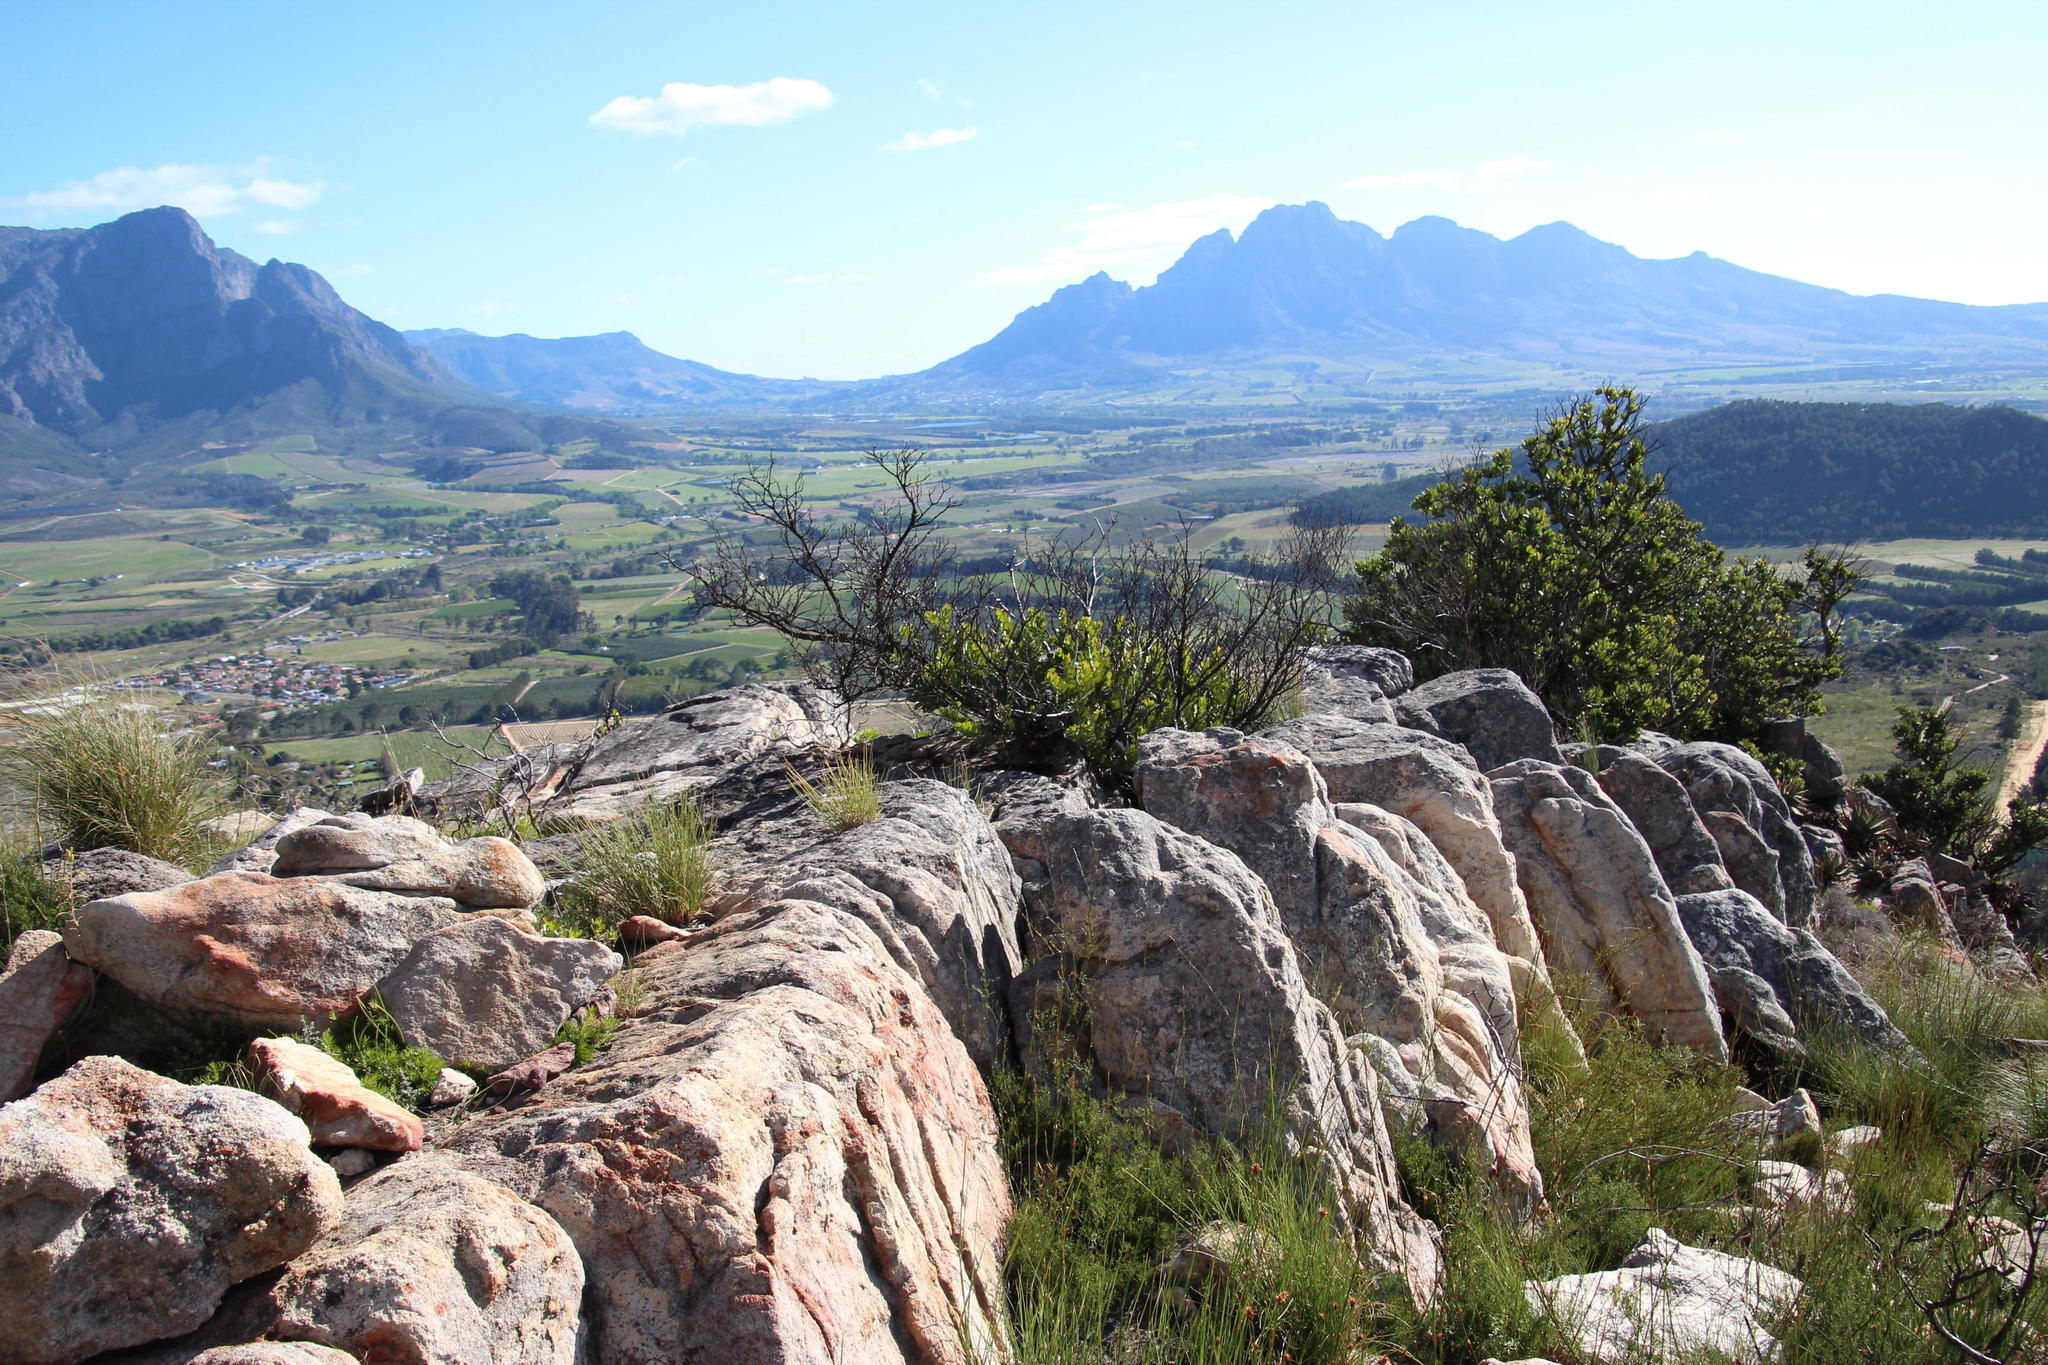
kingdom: Plantae
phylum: Tracheophyta
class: Magnoliopsida
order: Sapindales
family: Anacardiaceae
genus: Heeria
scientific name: Heeria argentea
